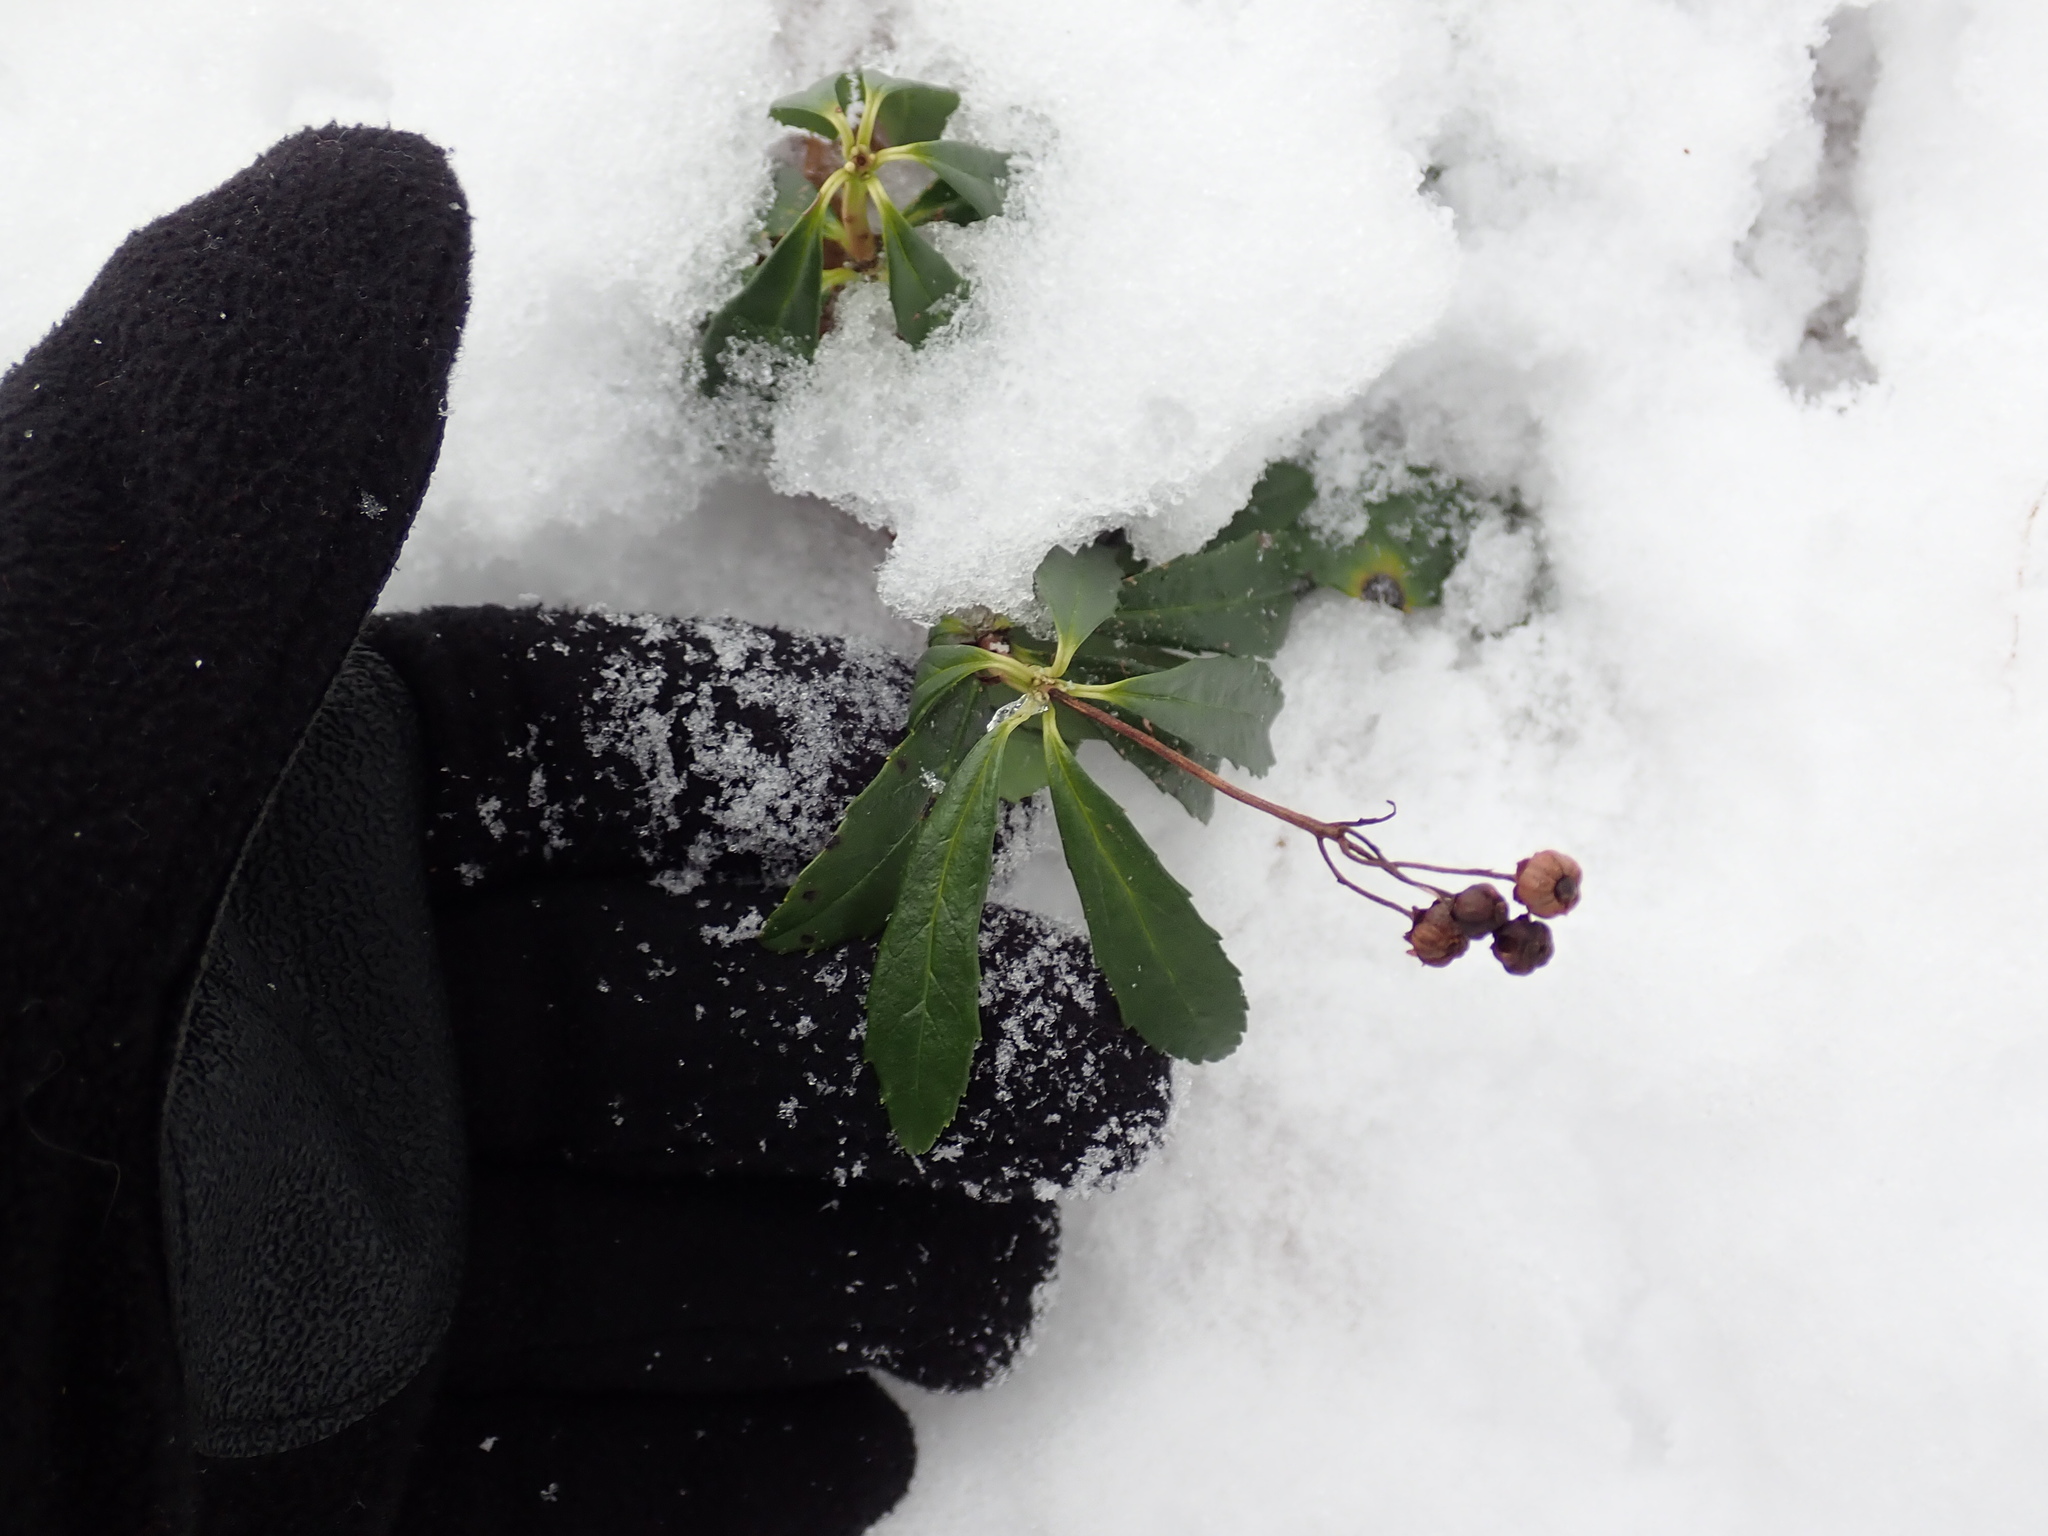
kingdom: Plantae
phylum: Tracheophyta
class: Magnoliopsida
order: Ericales
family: Ericaceae
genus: Chimaphila
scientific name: Chimaphila umbellata
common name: Pipsissewa
